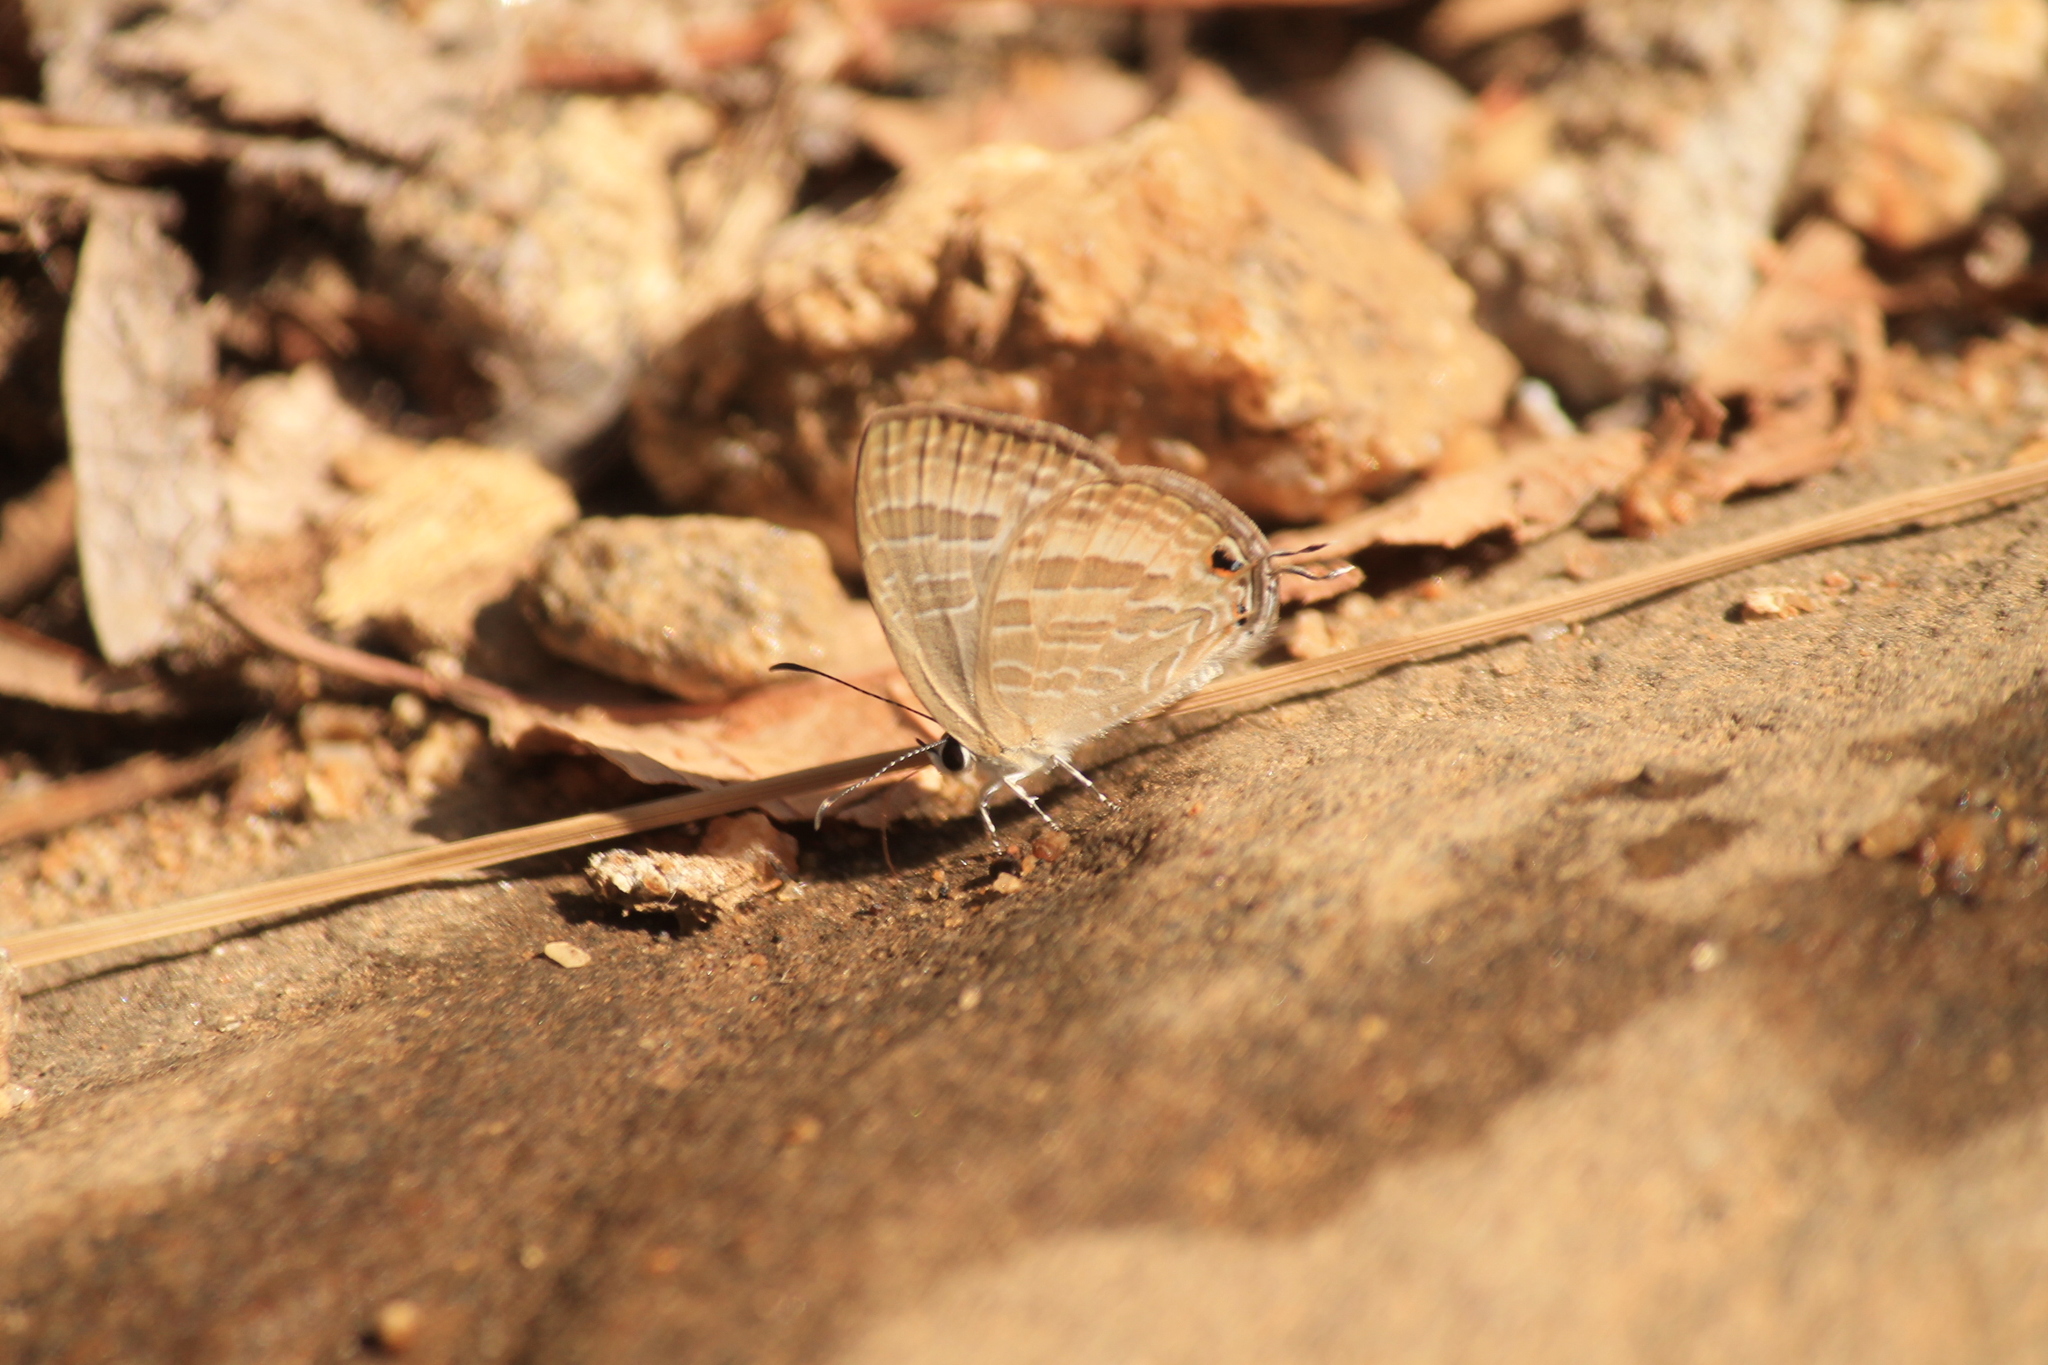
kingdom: Animalia
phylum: Arthropoda
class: Insecta
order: Lepidoptera
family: Lycaenidae
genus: Jamides
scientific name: Jamides celeno
